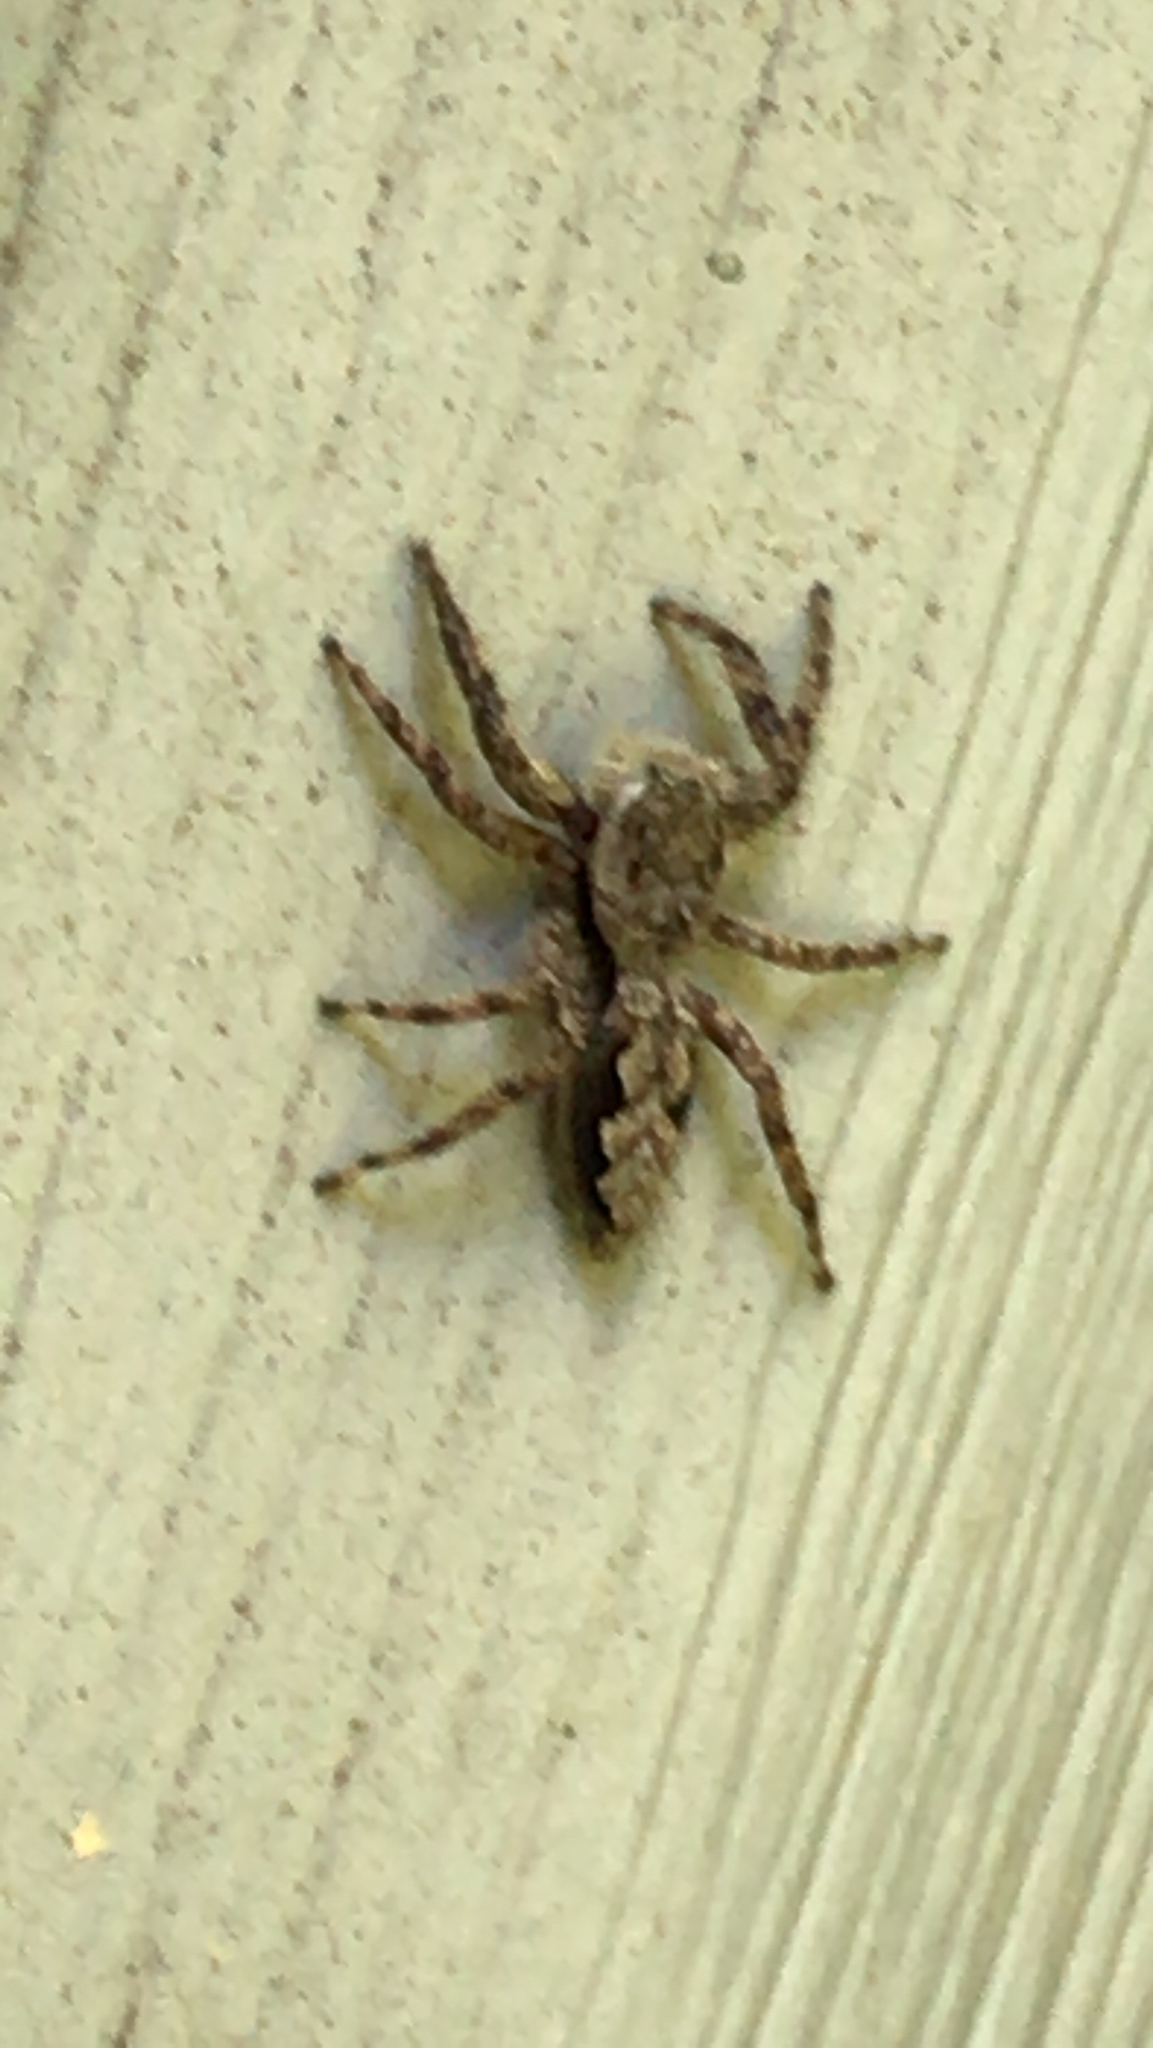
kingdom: Animalia
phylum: Arthropoda
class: Arachnida
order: Araneae
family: Salticidae
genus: Platycryptus
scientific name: Platycryptus undatus
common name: Tan jumping spider
